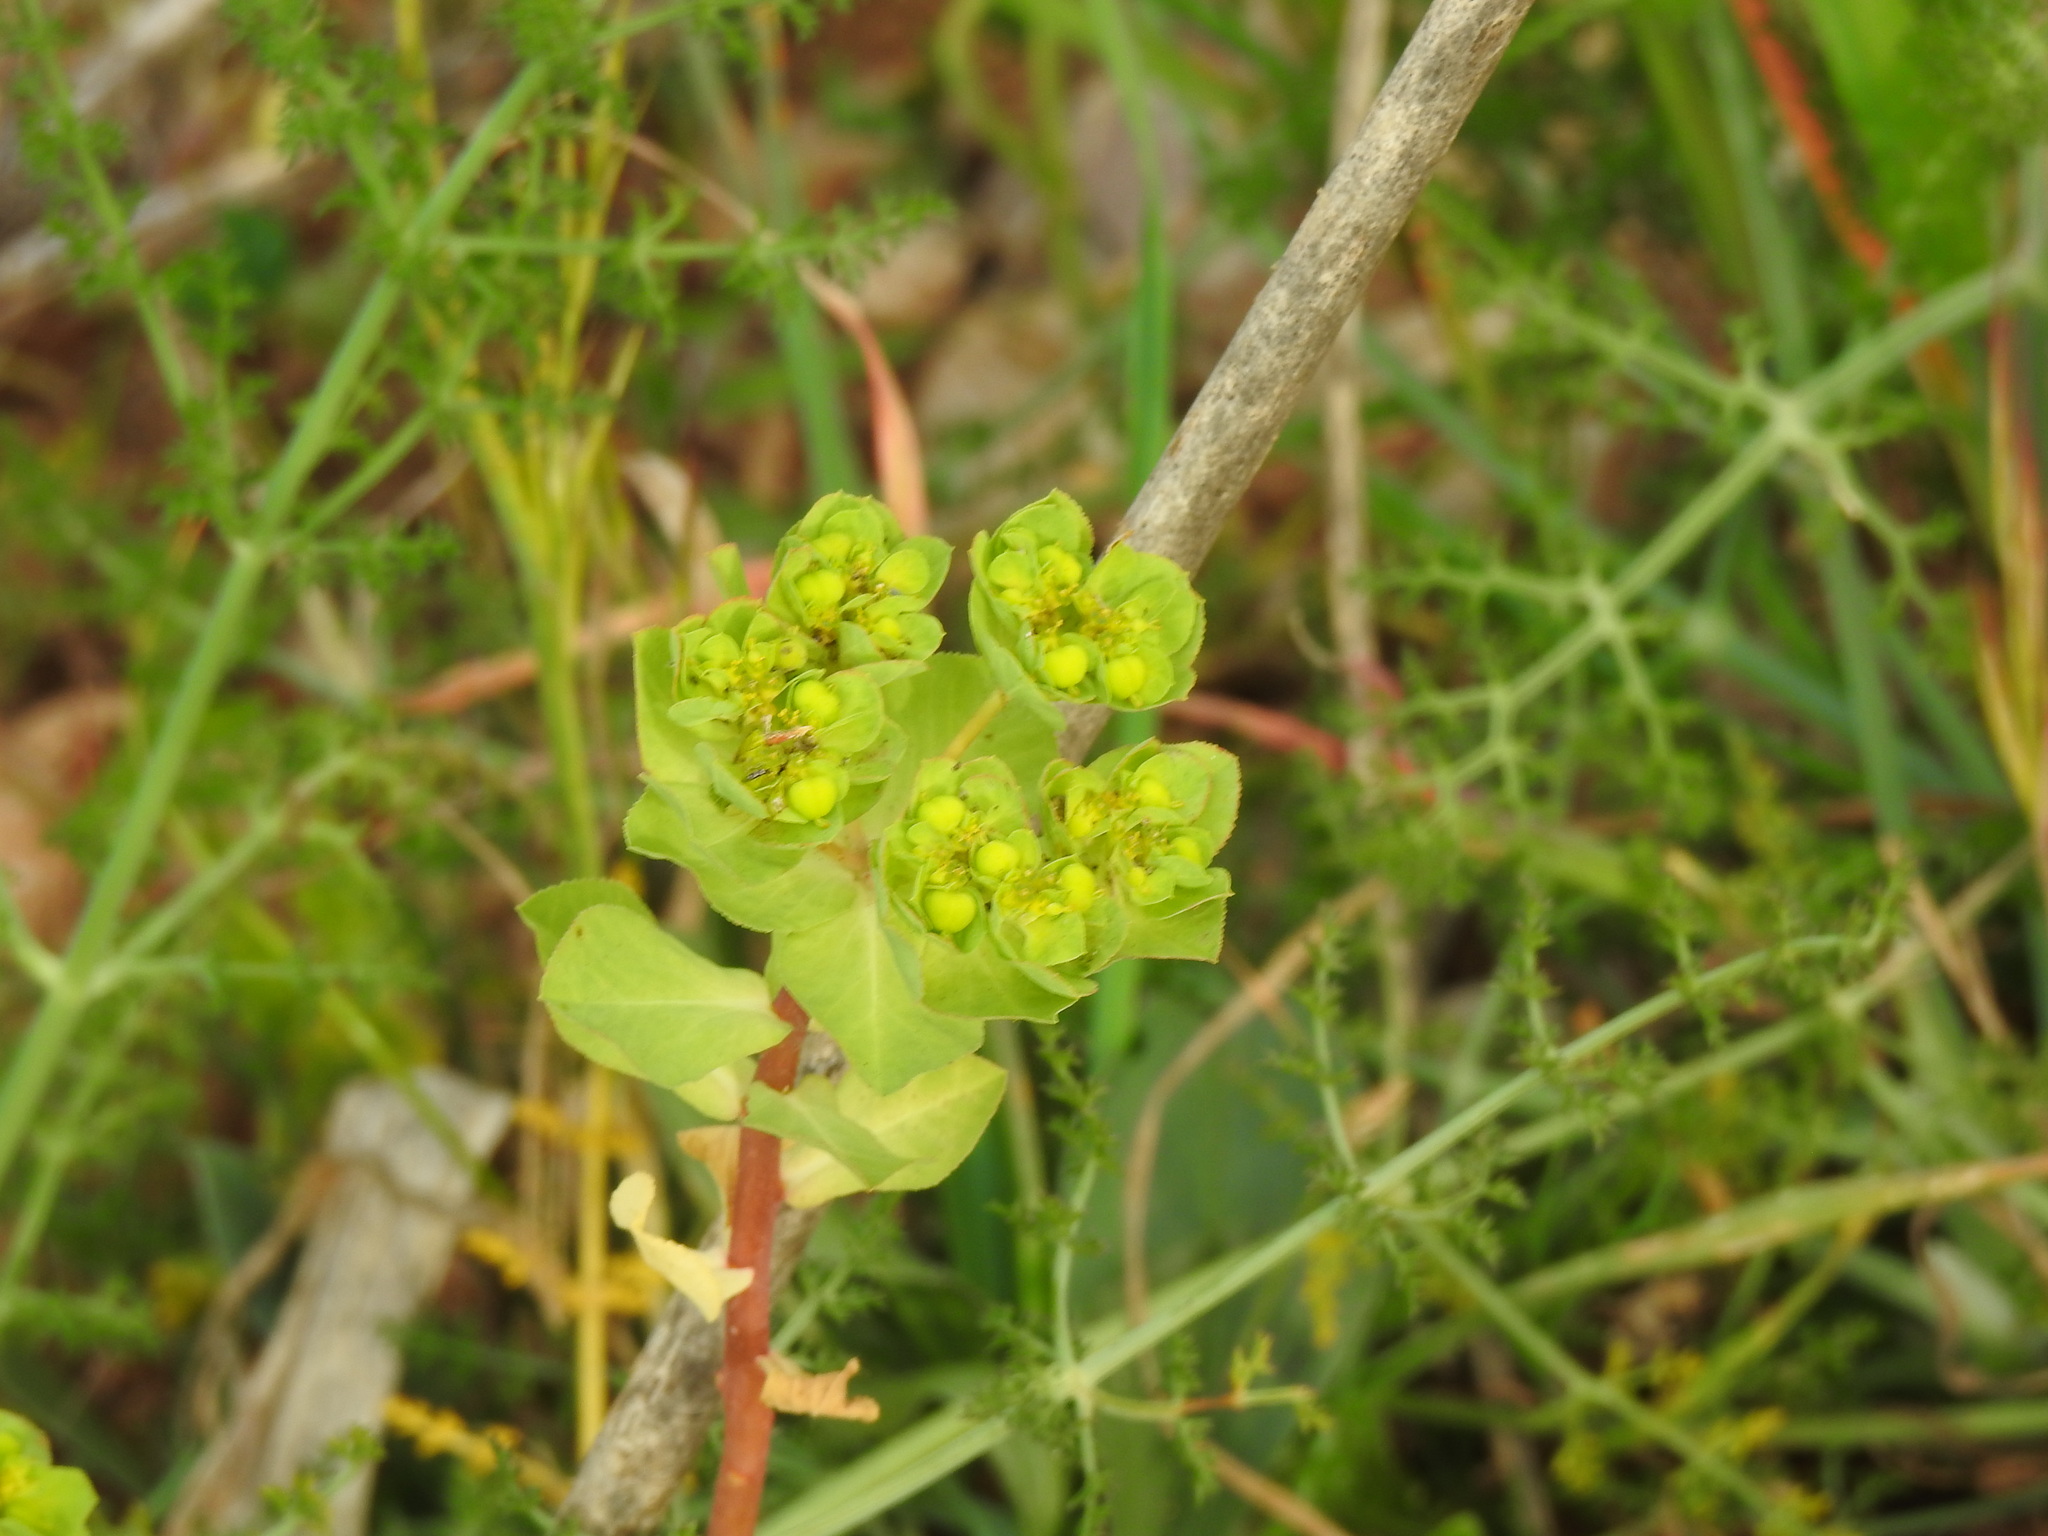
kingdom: Plantae
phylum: Tracheophyta
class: Magnoliopsida
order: Malpighiales
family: Euphorbiaceae
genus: Euphorbia
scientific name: Euphorbia helioscopia
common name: Sun spurge
